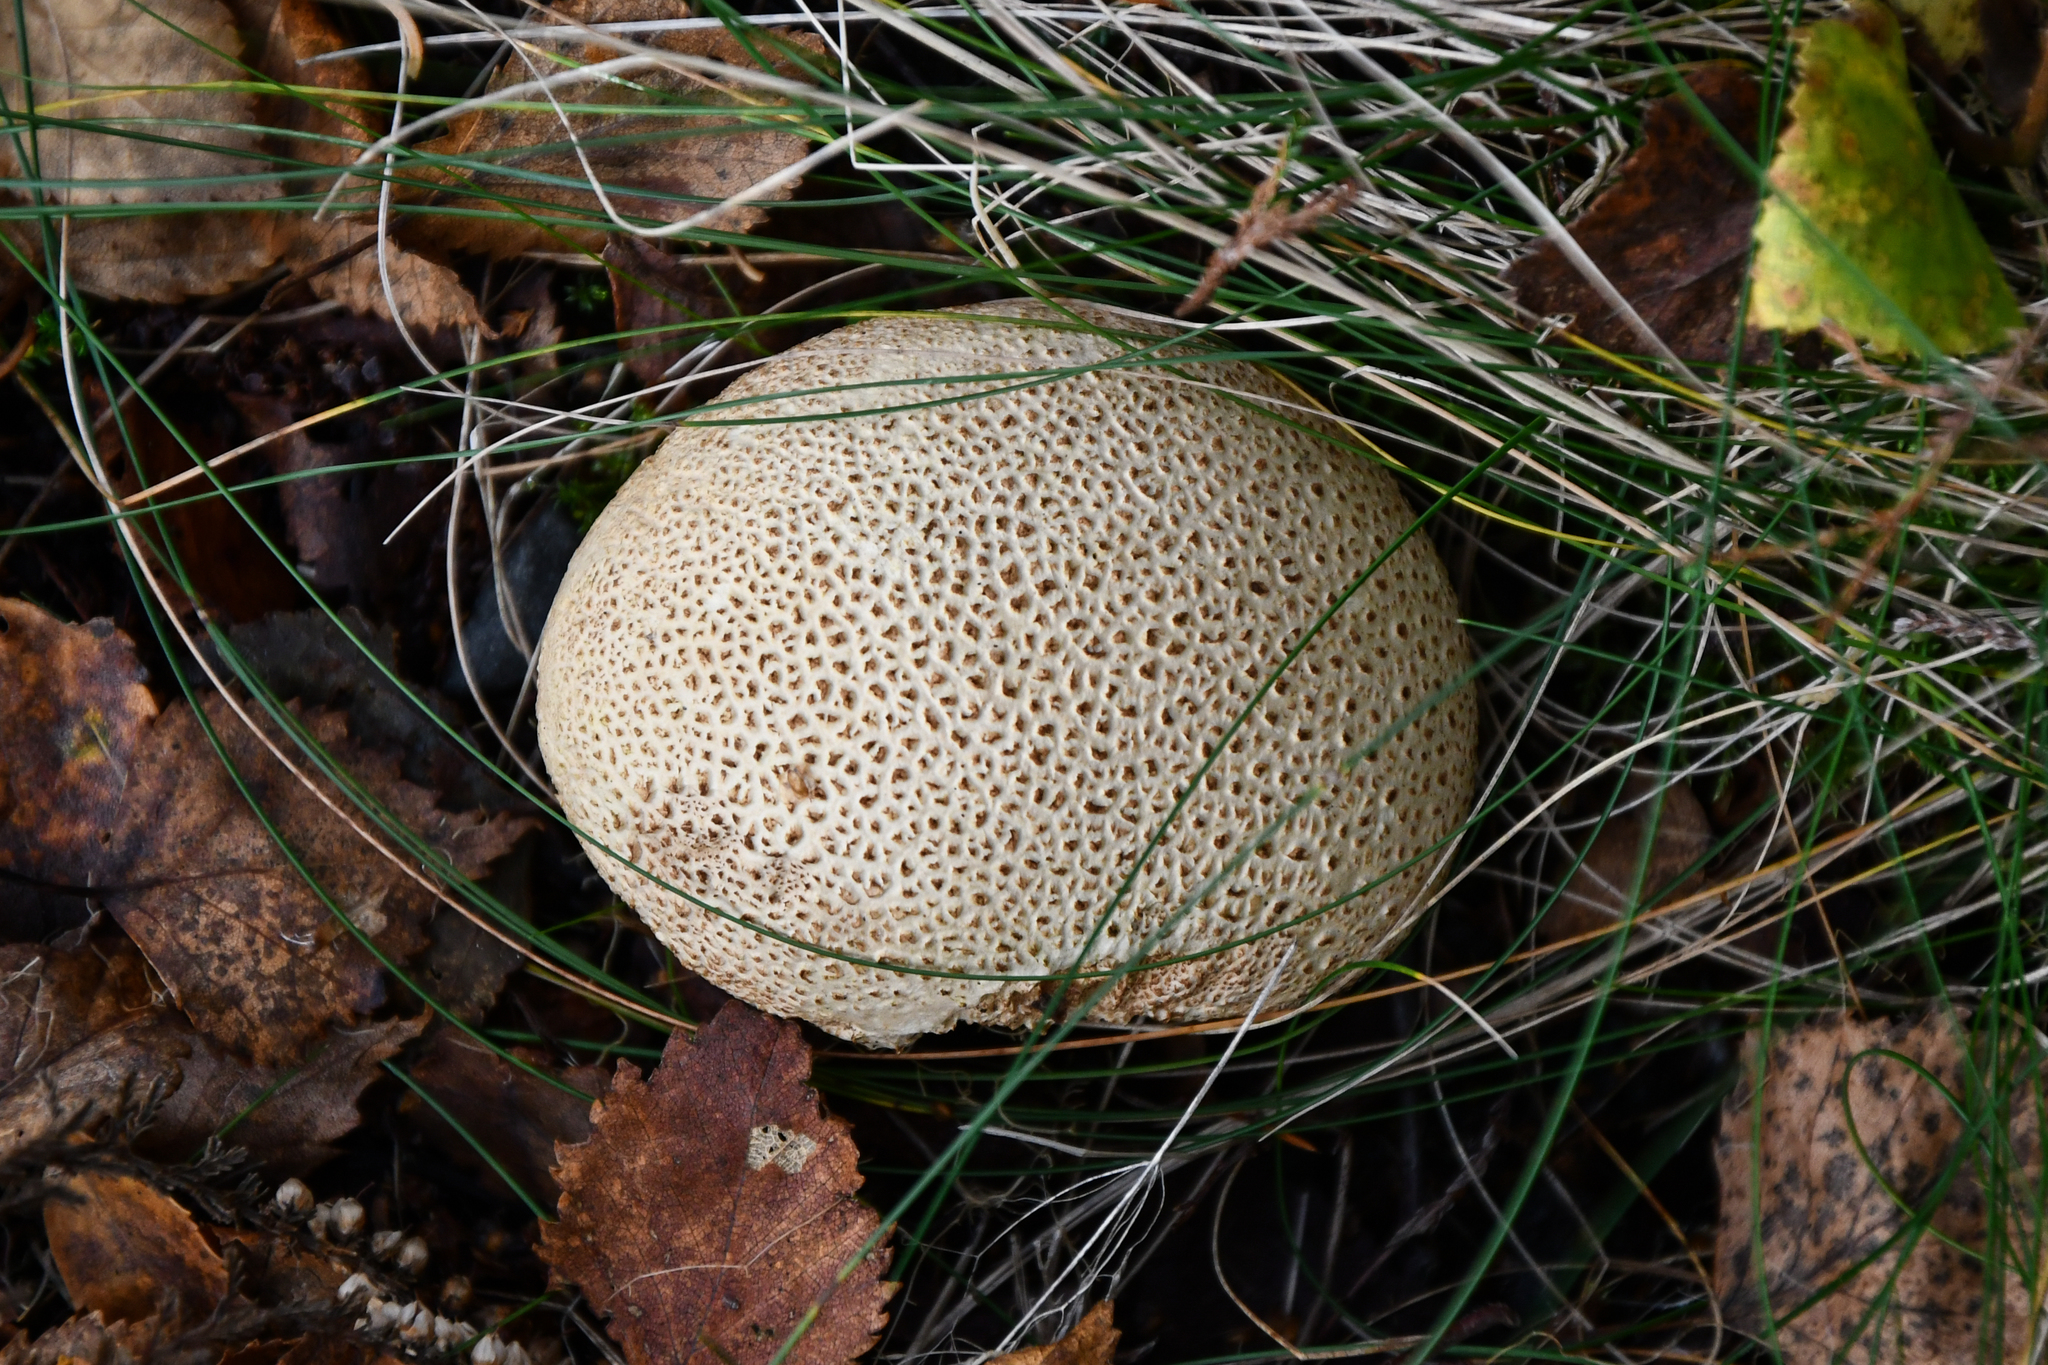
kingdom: Fungi
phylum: Basidiomycota
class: Agaricomycetes
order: Boletales
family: Sclerodermataceae
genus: Scleroderma
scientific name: Scleroderma citrinum
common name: Common earthball
